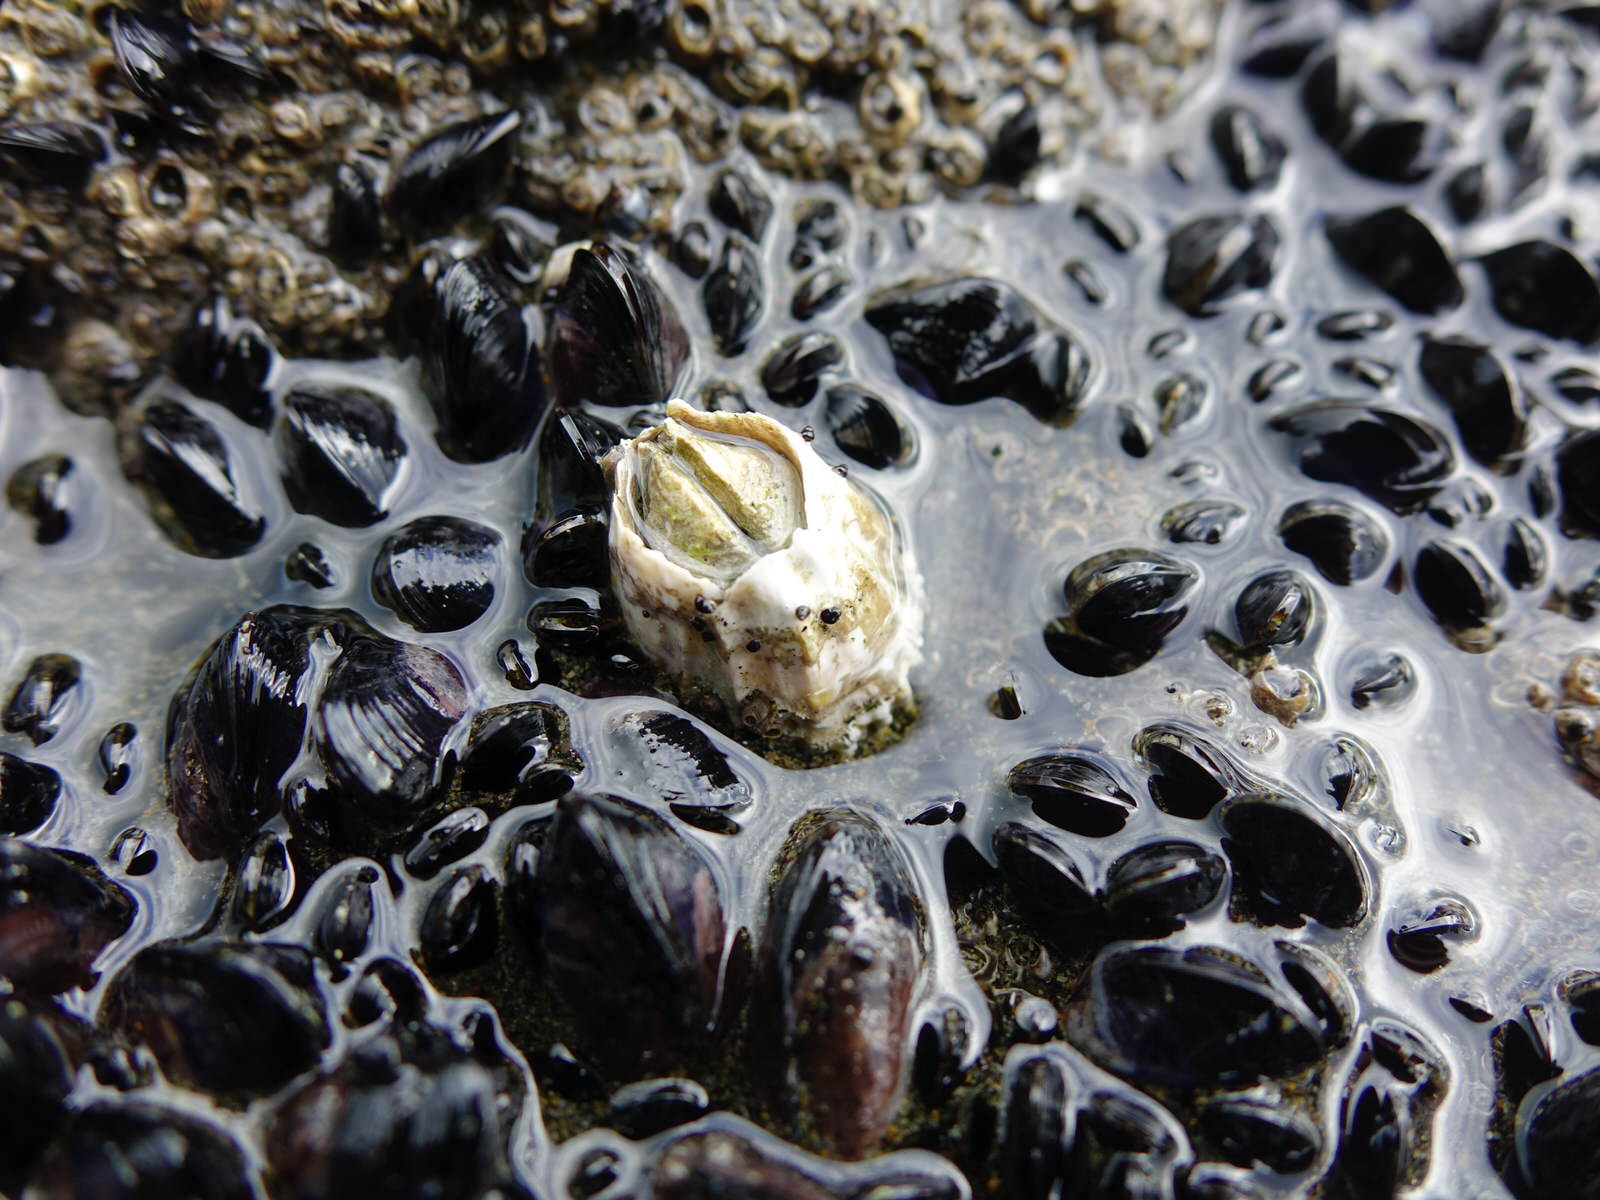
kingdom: Animalia
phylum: Arthropoda
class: Maxillopoda
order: Sessilia
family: Tetraclitidae
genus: Epopella
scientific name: Epopella plicata
